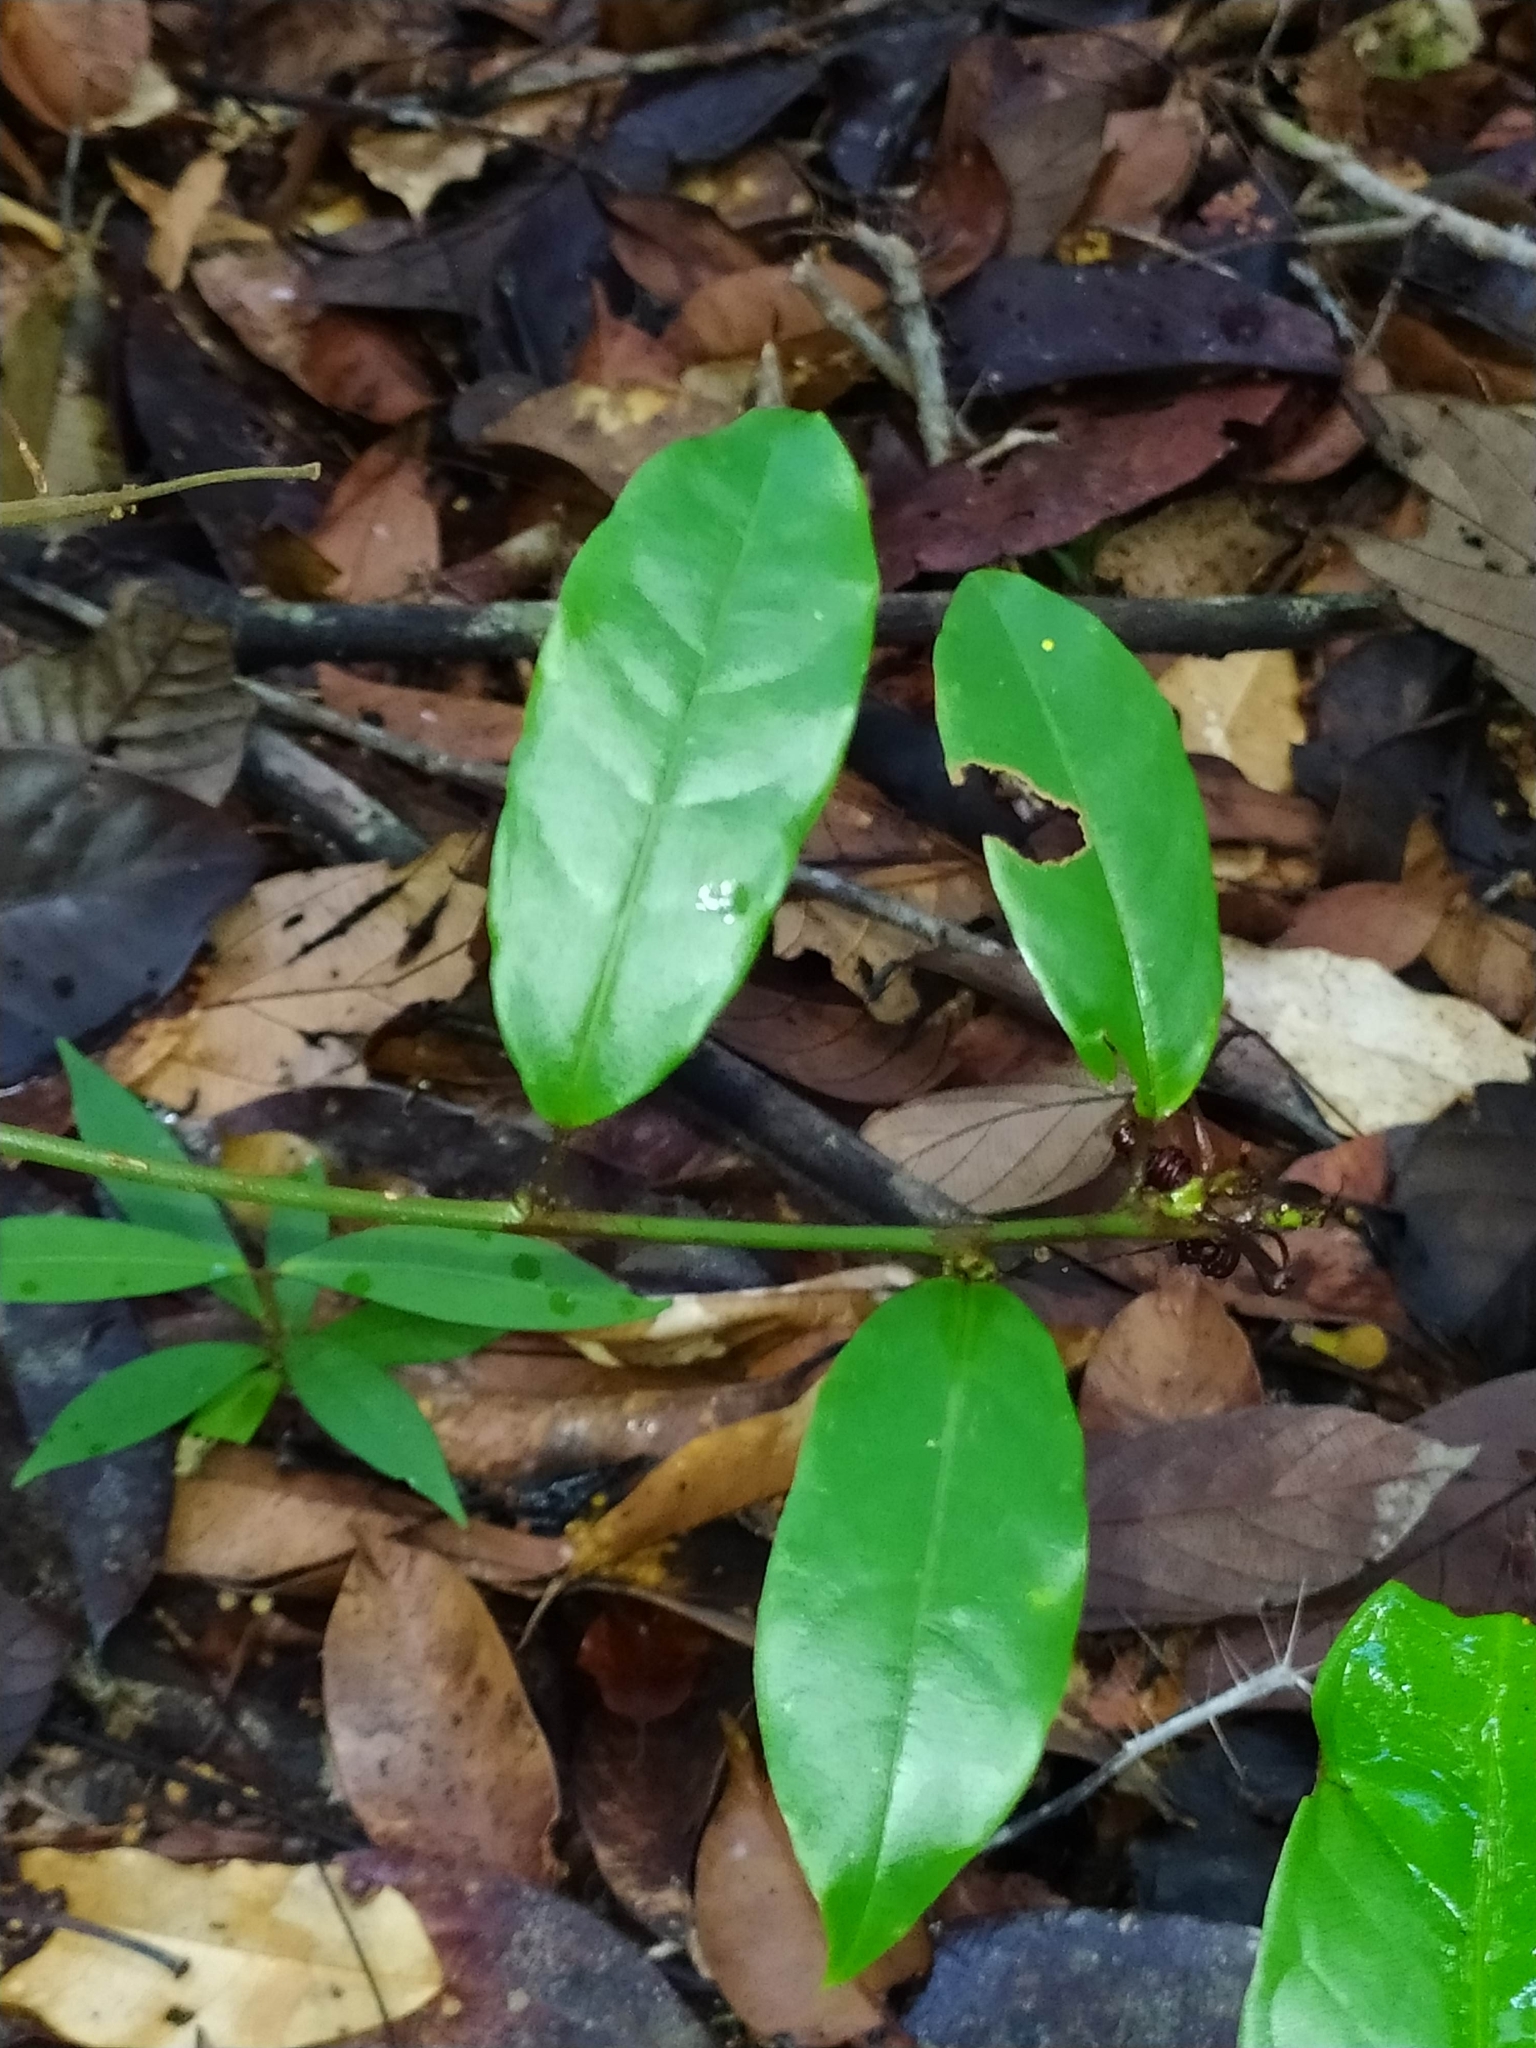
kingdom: Plantae
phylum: Tracheophyta
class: Magnoliopsida
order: Malpighiales
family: Passifloraceae
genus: Passiflora
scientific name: Passiflora glandulosa
